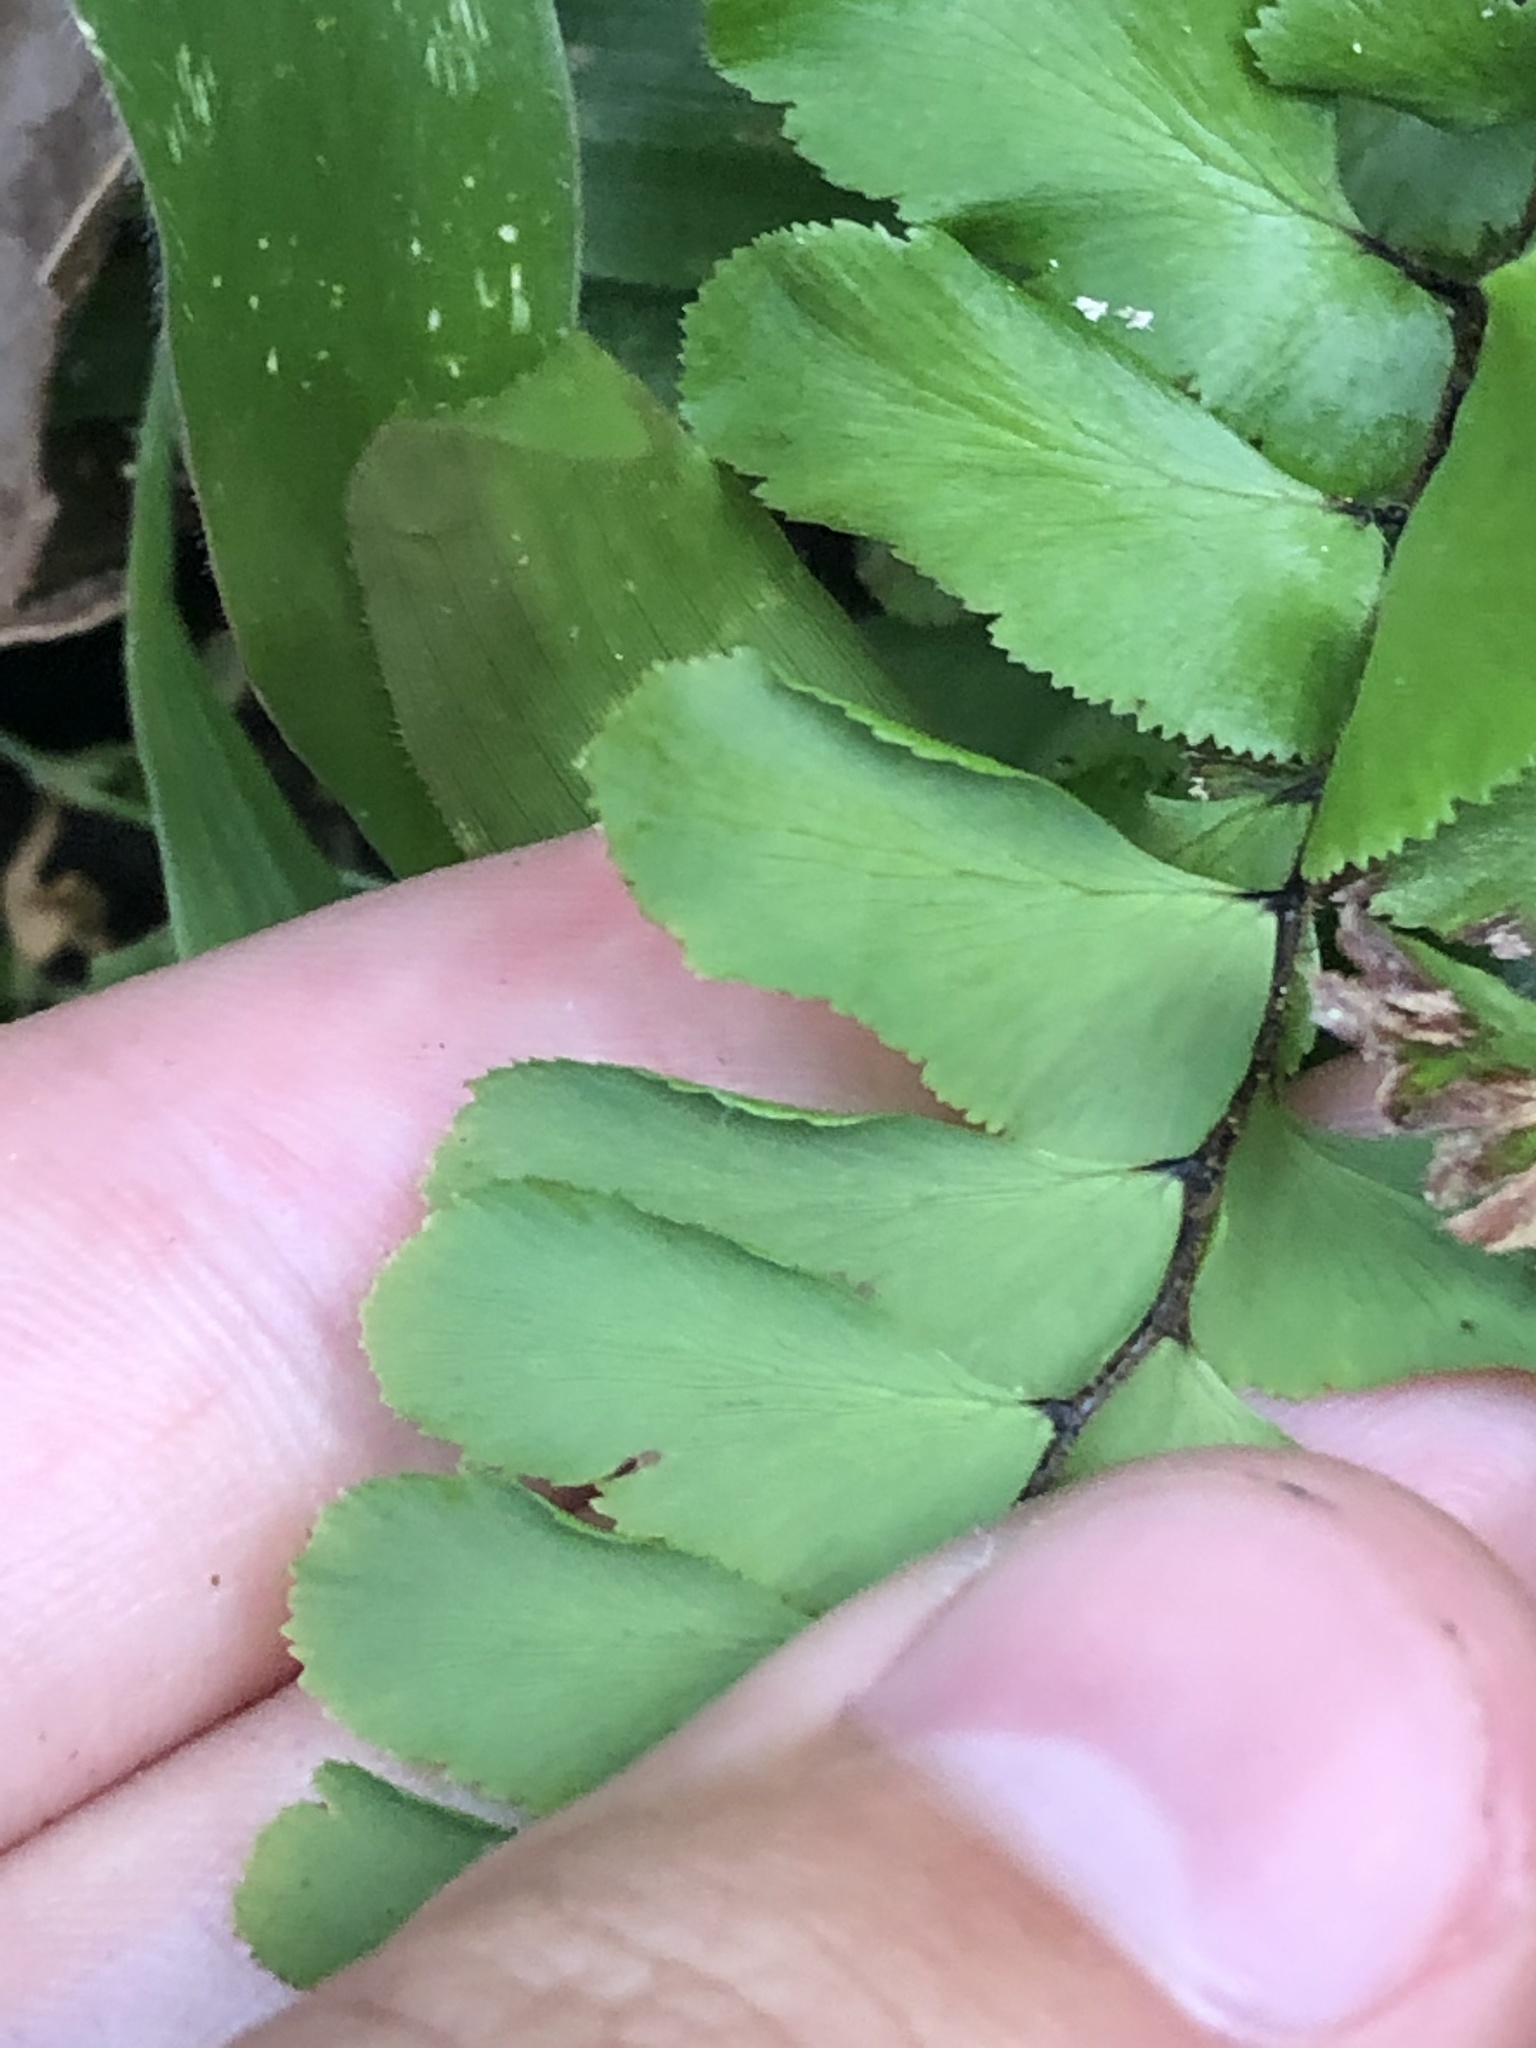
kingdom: Plantae
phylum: Tracheophyta
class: Polypodiopsida
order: Polypodiales
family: Pteridaceae
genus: Adiantum
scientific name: Adiantum tomentosum
